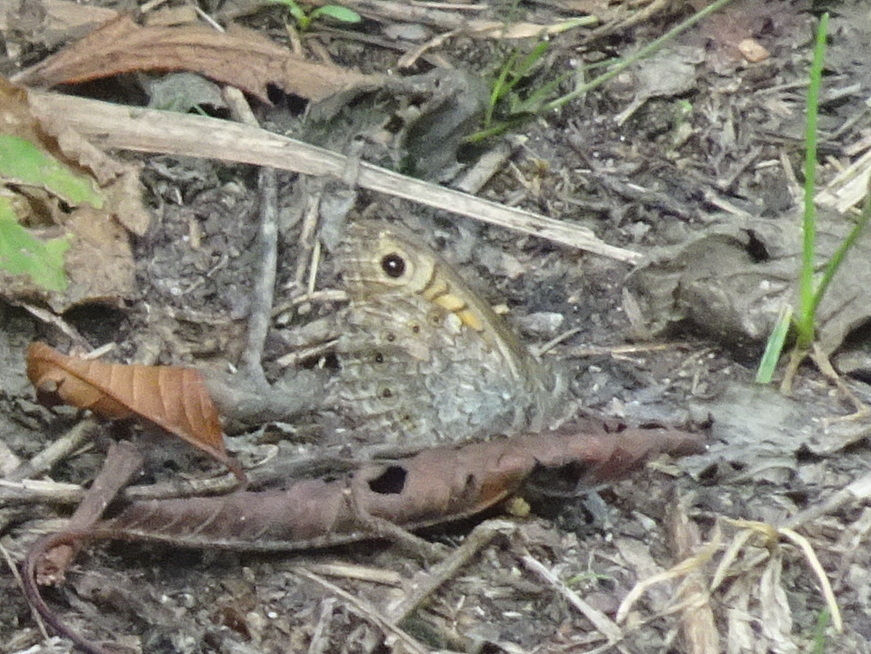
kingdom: Animalia
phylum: Arthropoda
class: Insecta
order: Lepidoptera
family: Nymphalidae
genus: Pararge
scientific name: Pararge Lasiommata megera
